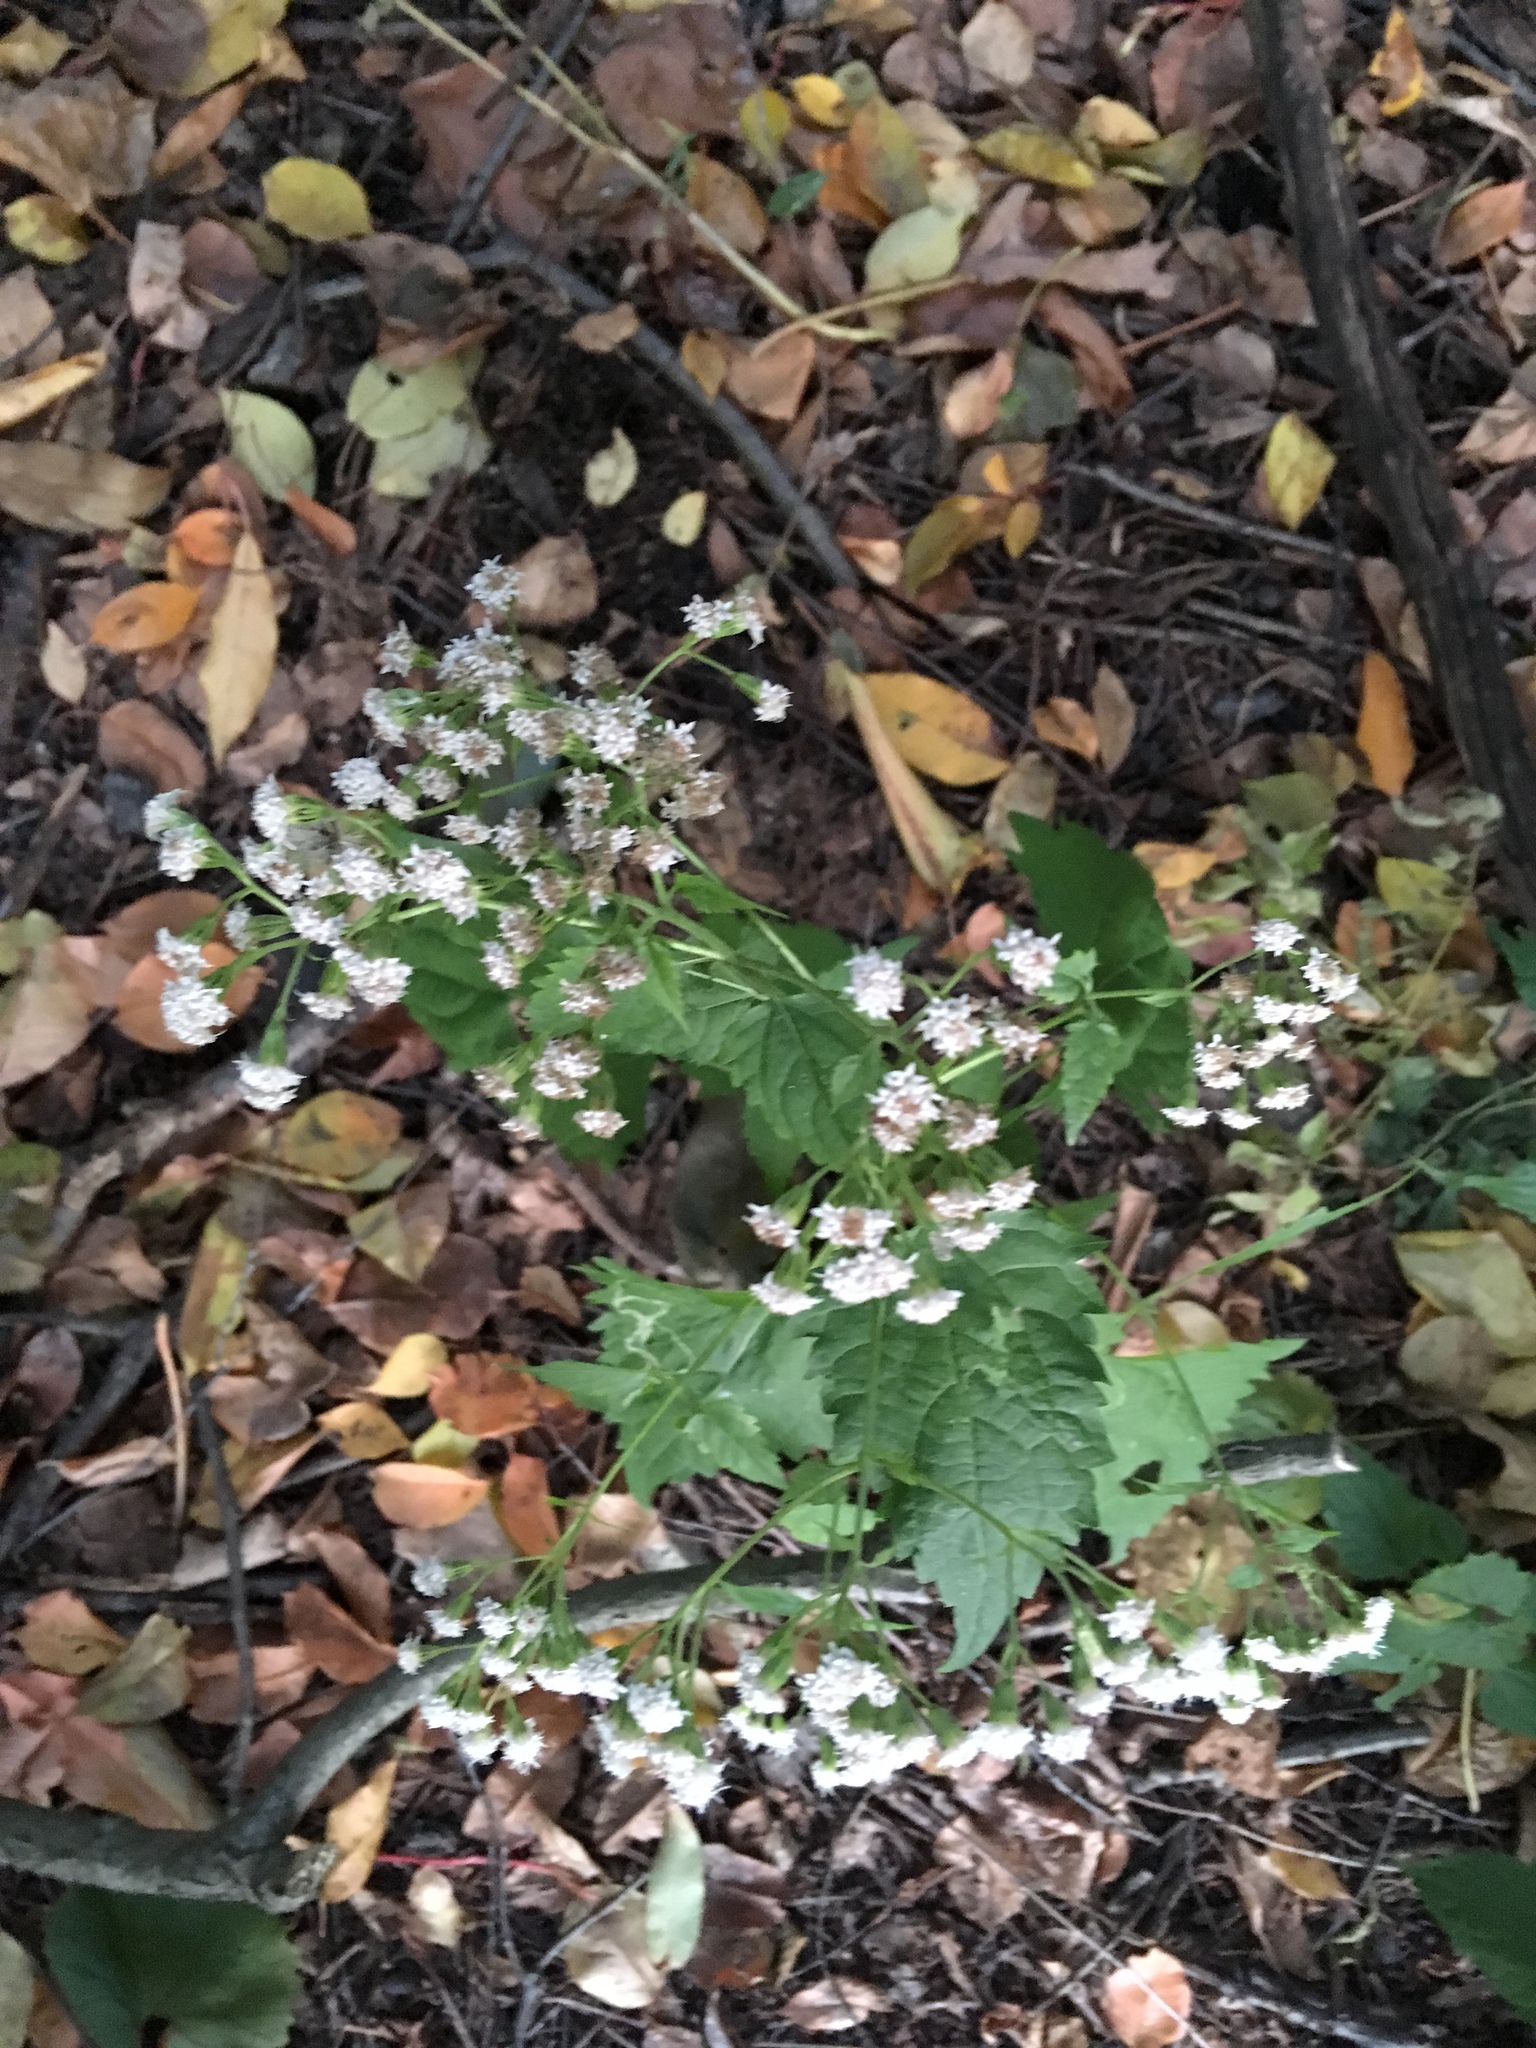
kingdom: Plantae
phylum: Tracheophyta
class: Magnoliopsida
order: Asterales
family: Asteraceae
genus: Ageratina
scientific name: Ageratina altissima
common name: White snakeroot
